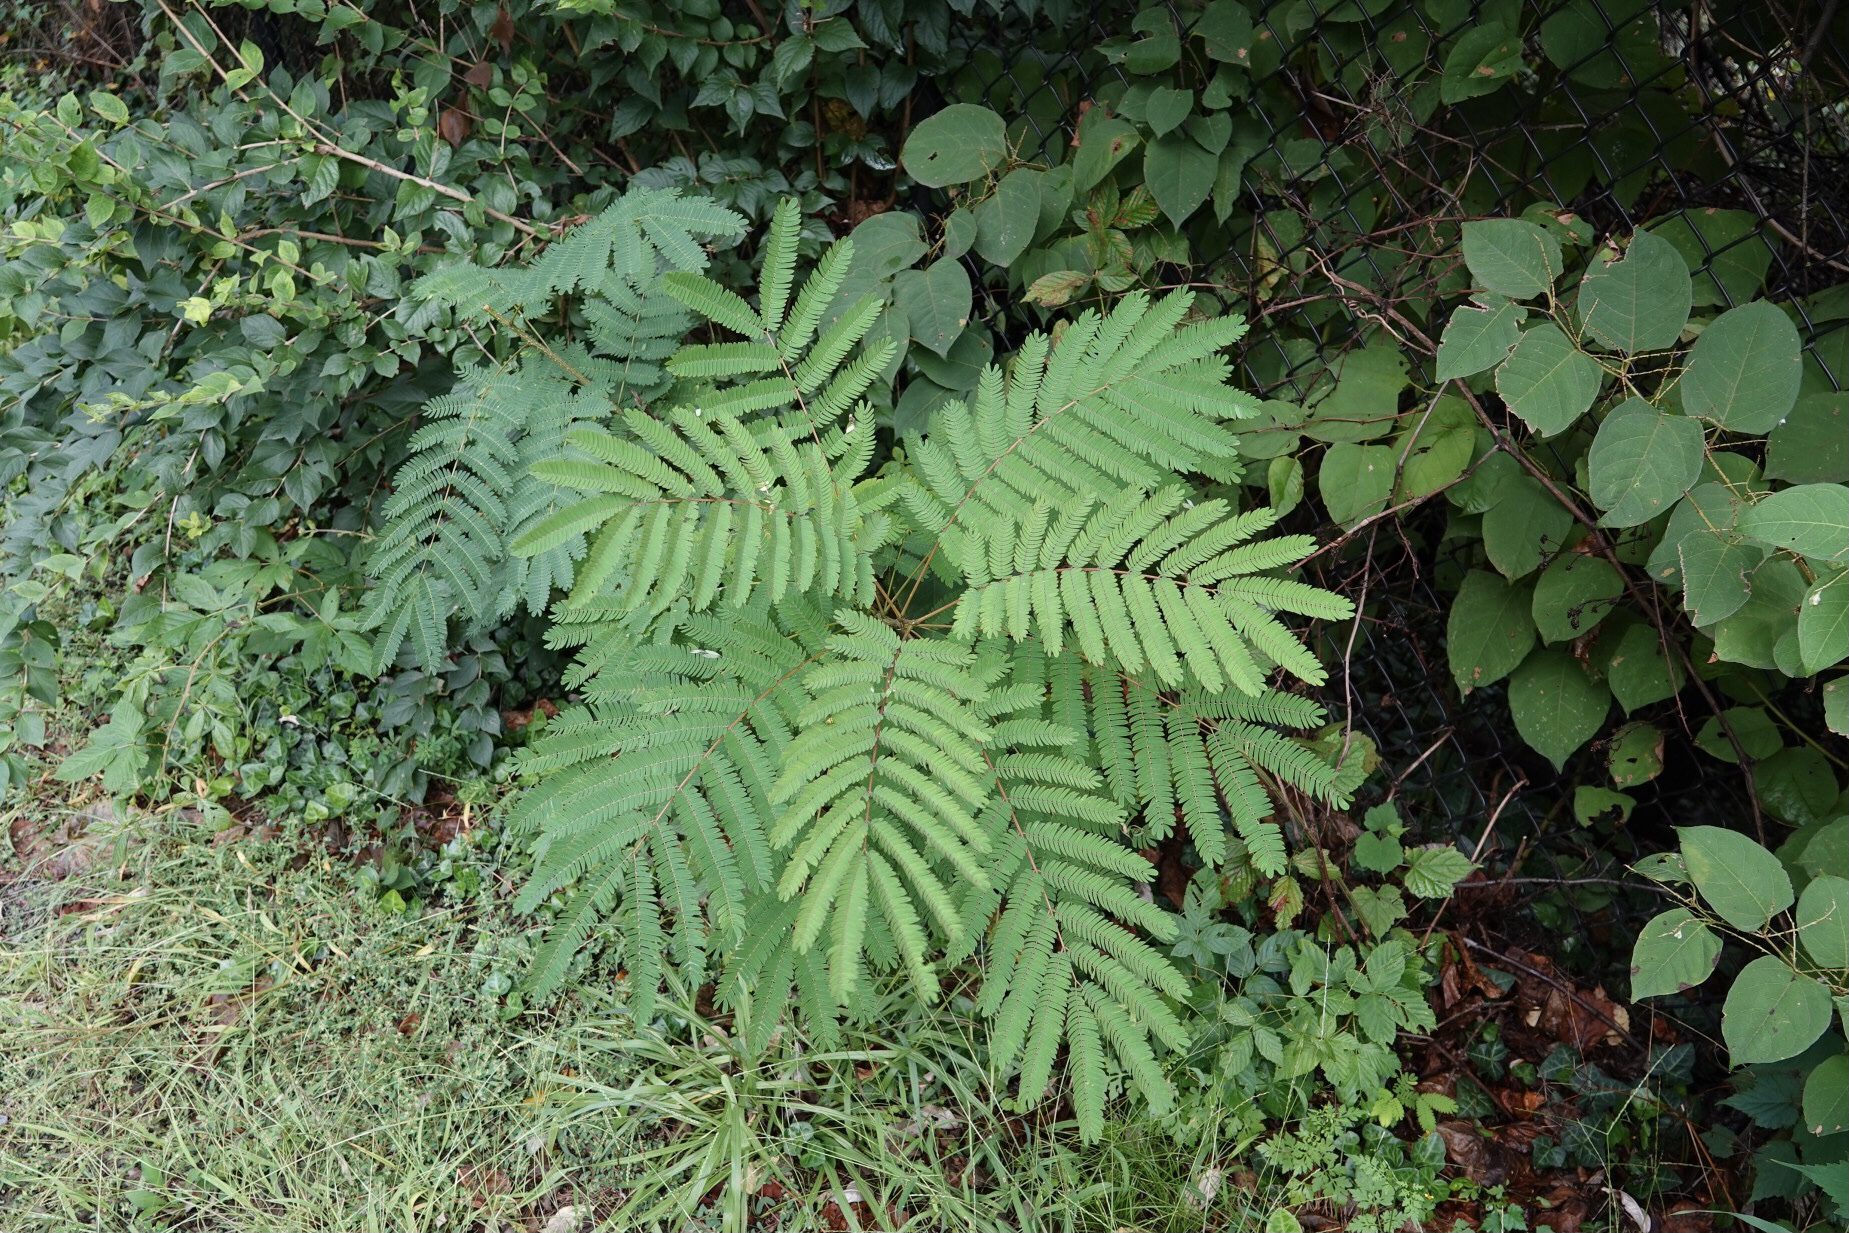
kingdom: Plantae
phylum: Tracheophyta
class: Magnoliopsida
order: Fabales
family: Fabaceae
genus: Albizia
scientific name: Albizia julibrissin
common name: Silktree
